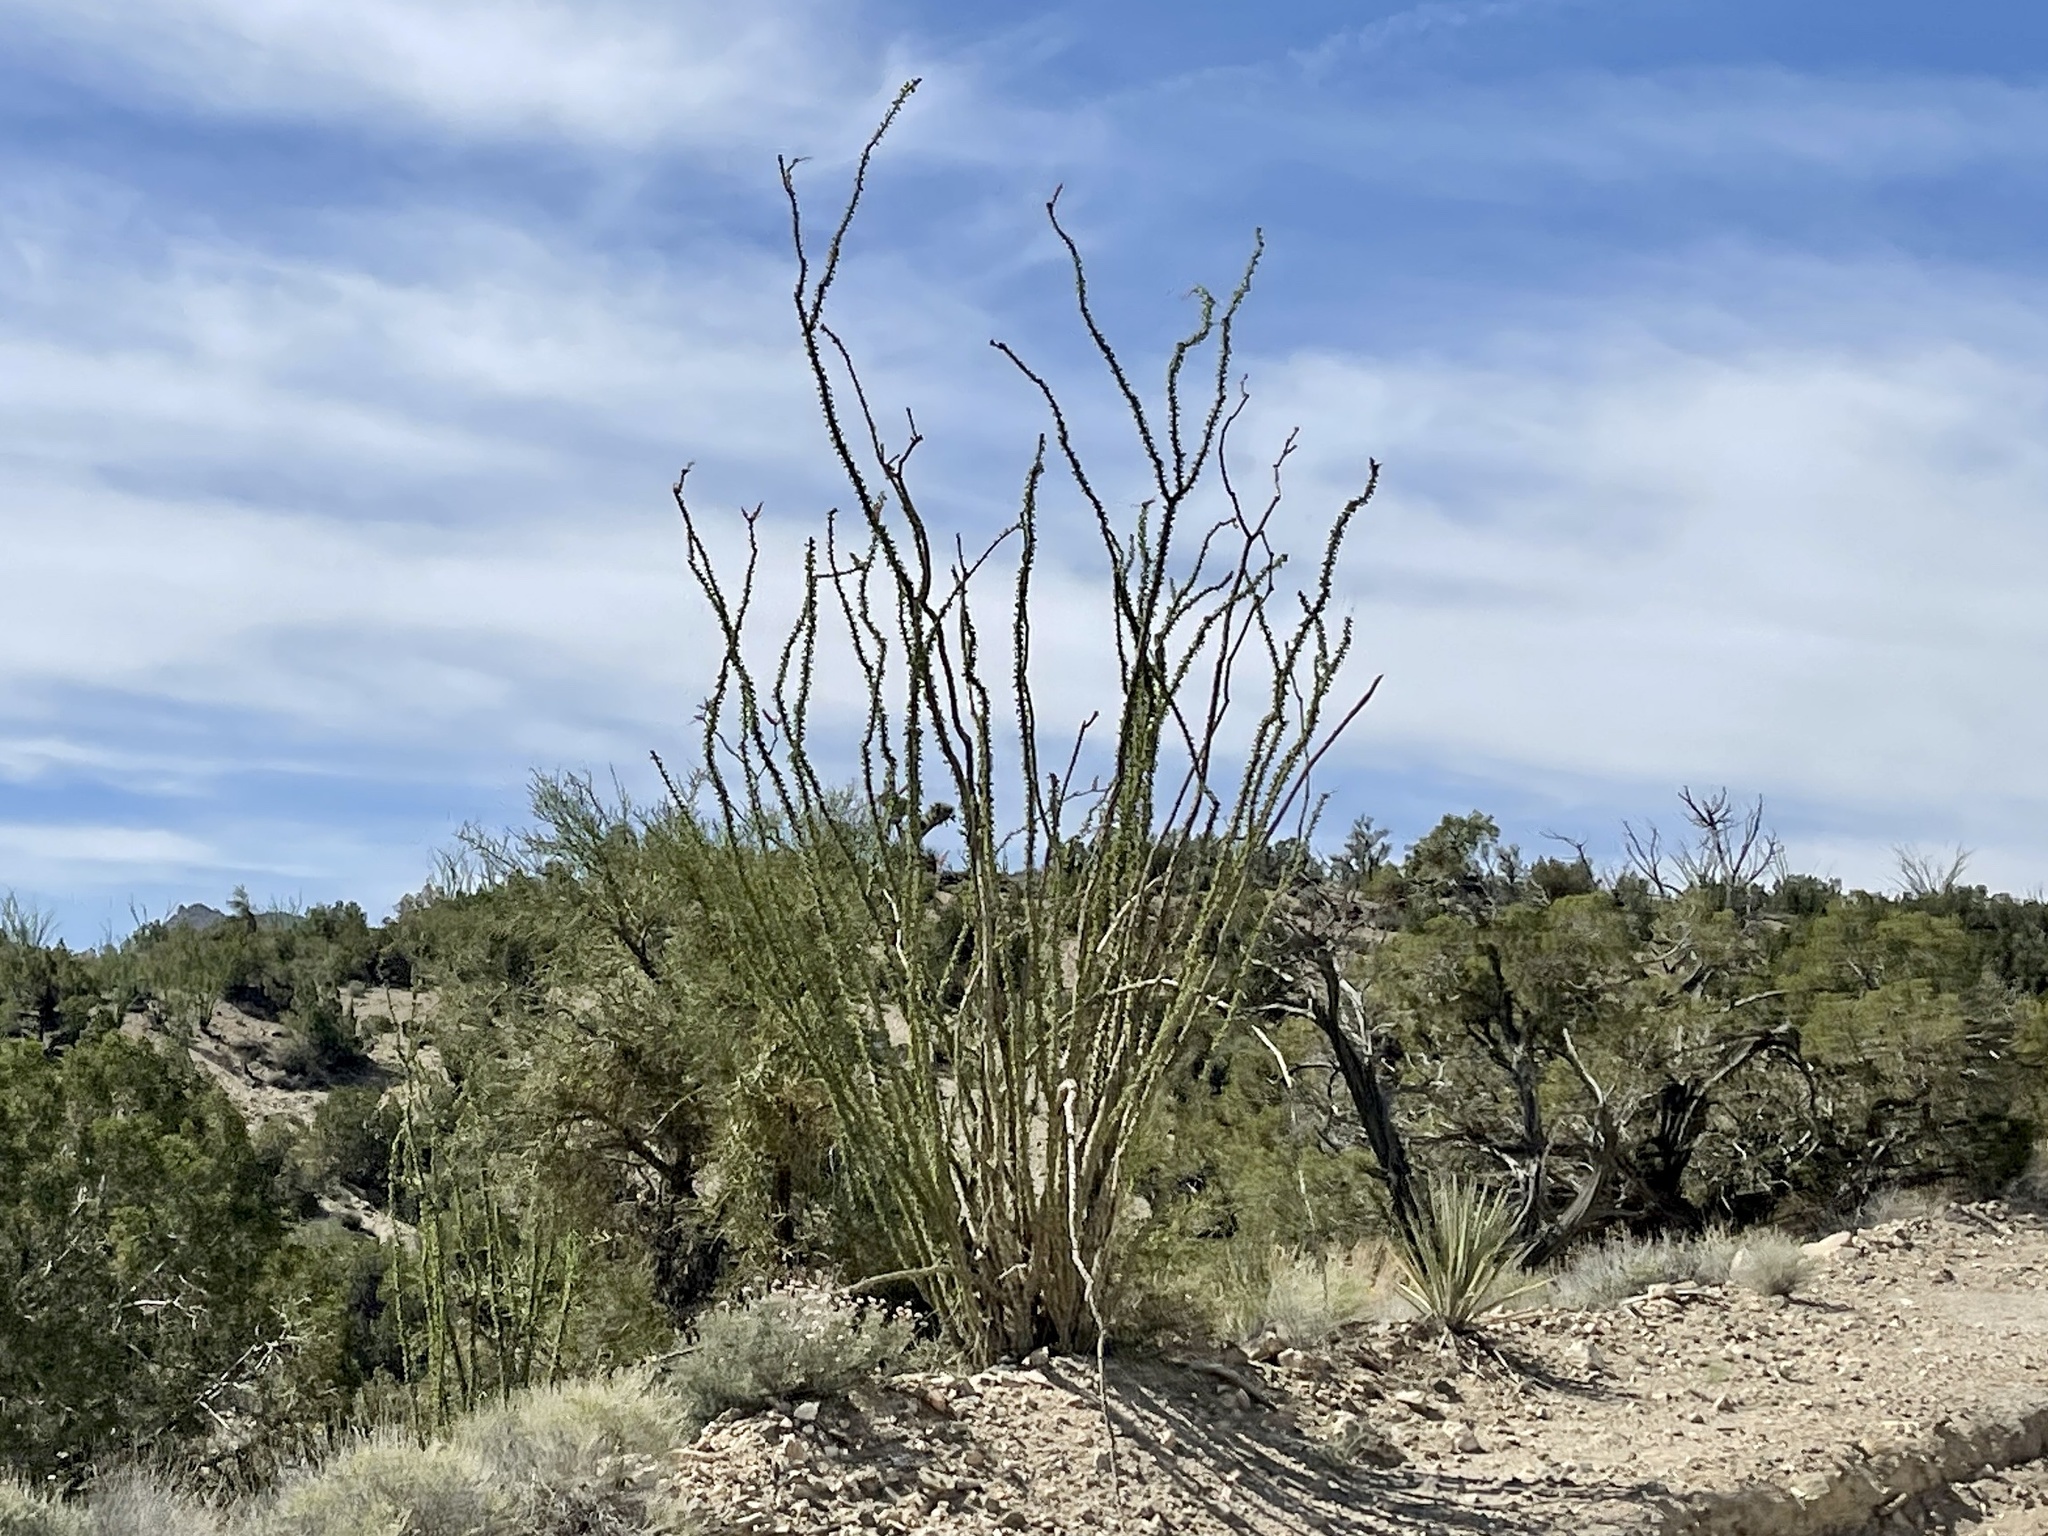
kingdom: Plantae
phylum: Tracheophyta
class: Magnoliopsida
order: Ericales
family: Fouquieriaceae
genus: Fouquieria
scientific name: Fouquieria splendens
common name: Vine-cactus
